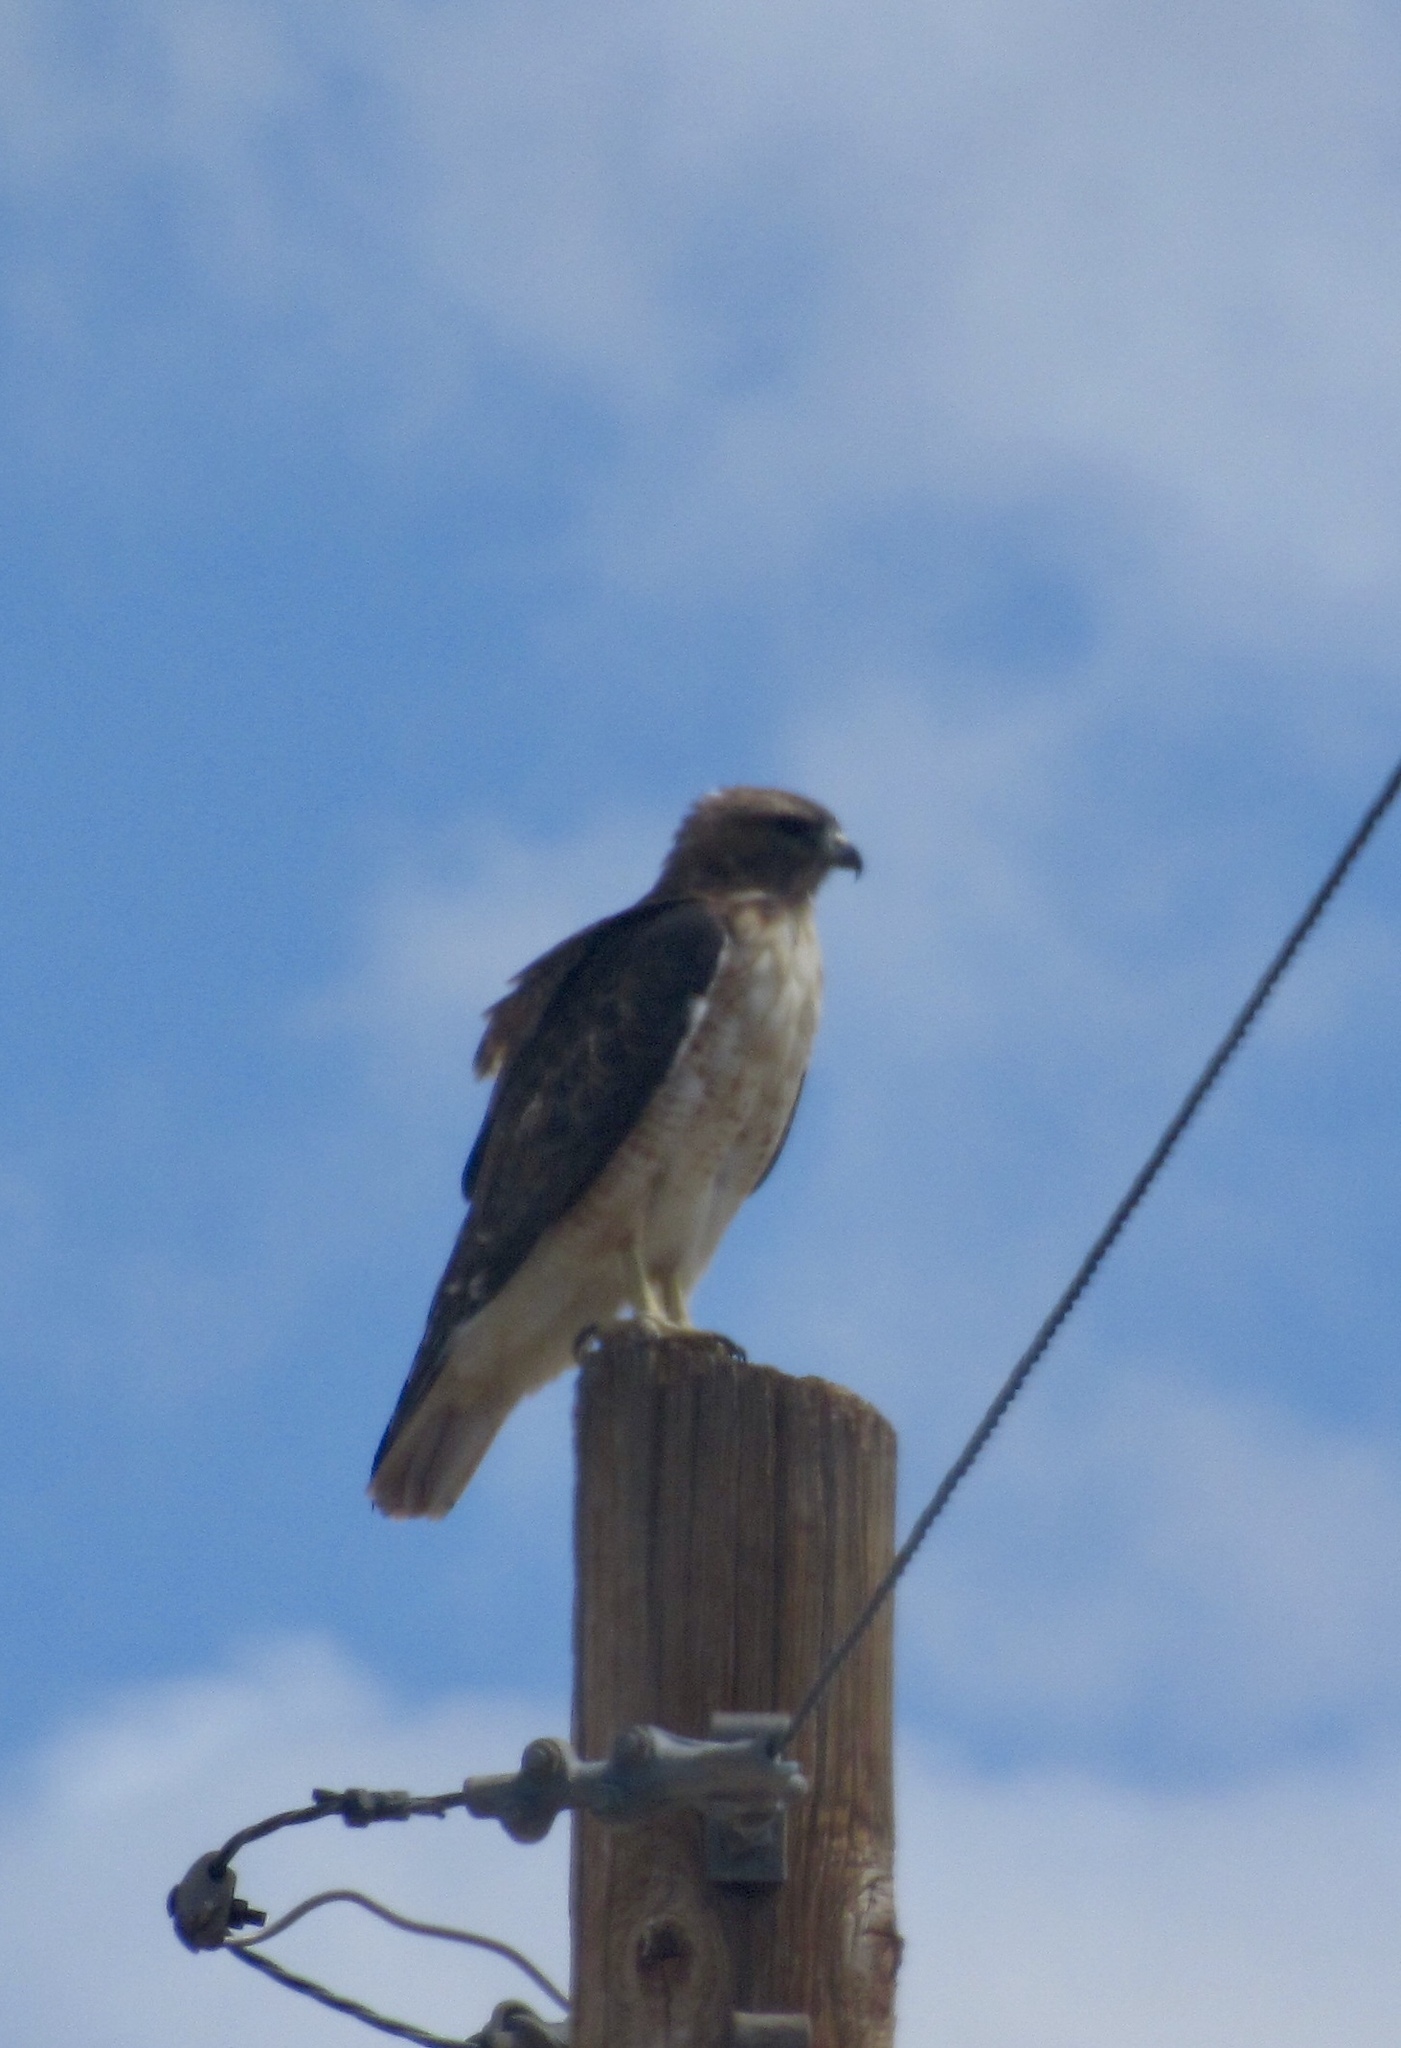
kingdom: Animalia
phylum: Chordata
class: Aves
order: Accipitriformes
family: Accipitridae
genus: Buteo
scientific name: Buteo jamaicensis
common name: Red-tailed hawk
